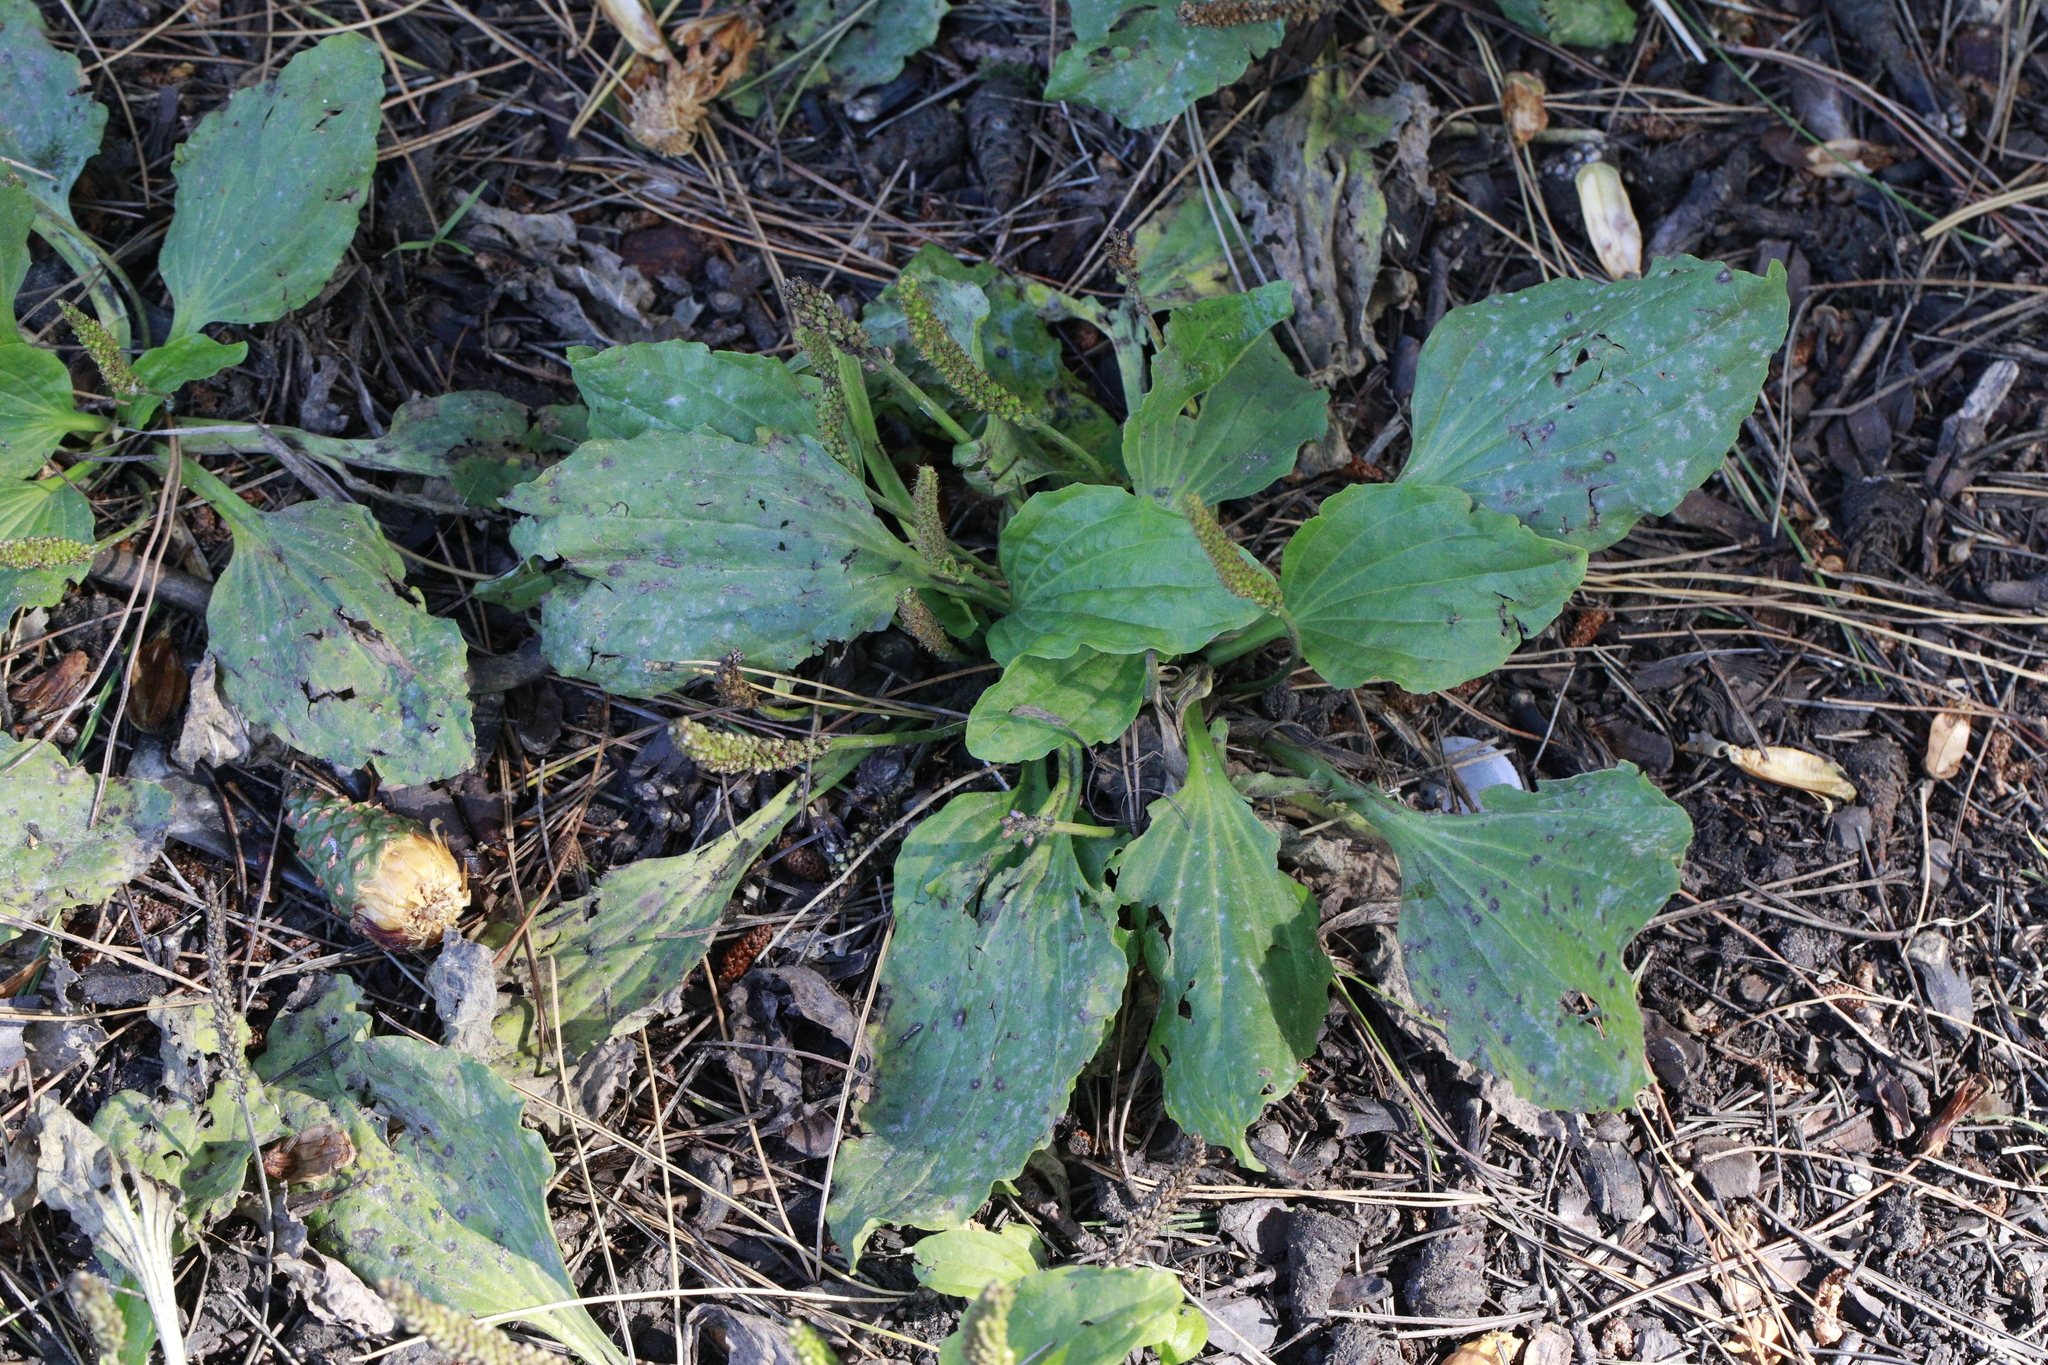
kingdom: Plantae
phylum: Tracheophyta
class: Magnoliopsida
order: Lamiales
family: Plantaginaceae
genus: Plantago
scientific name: Plantago major
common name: Common plantain
